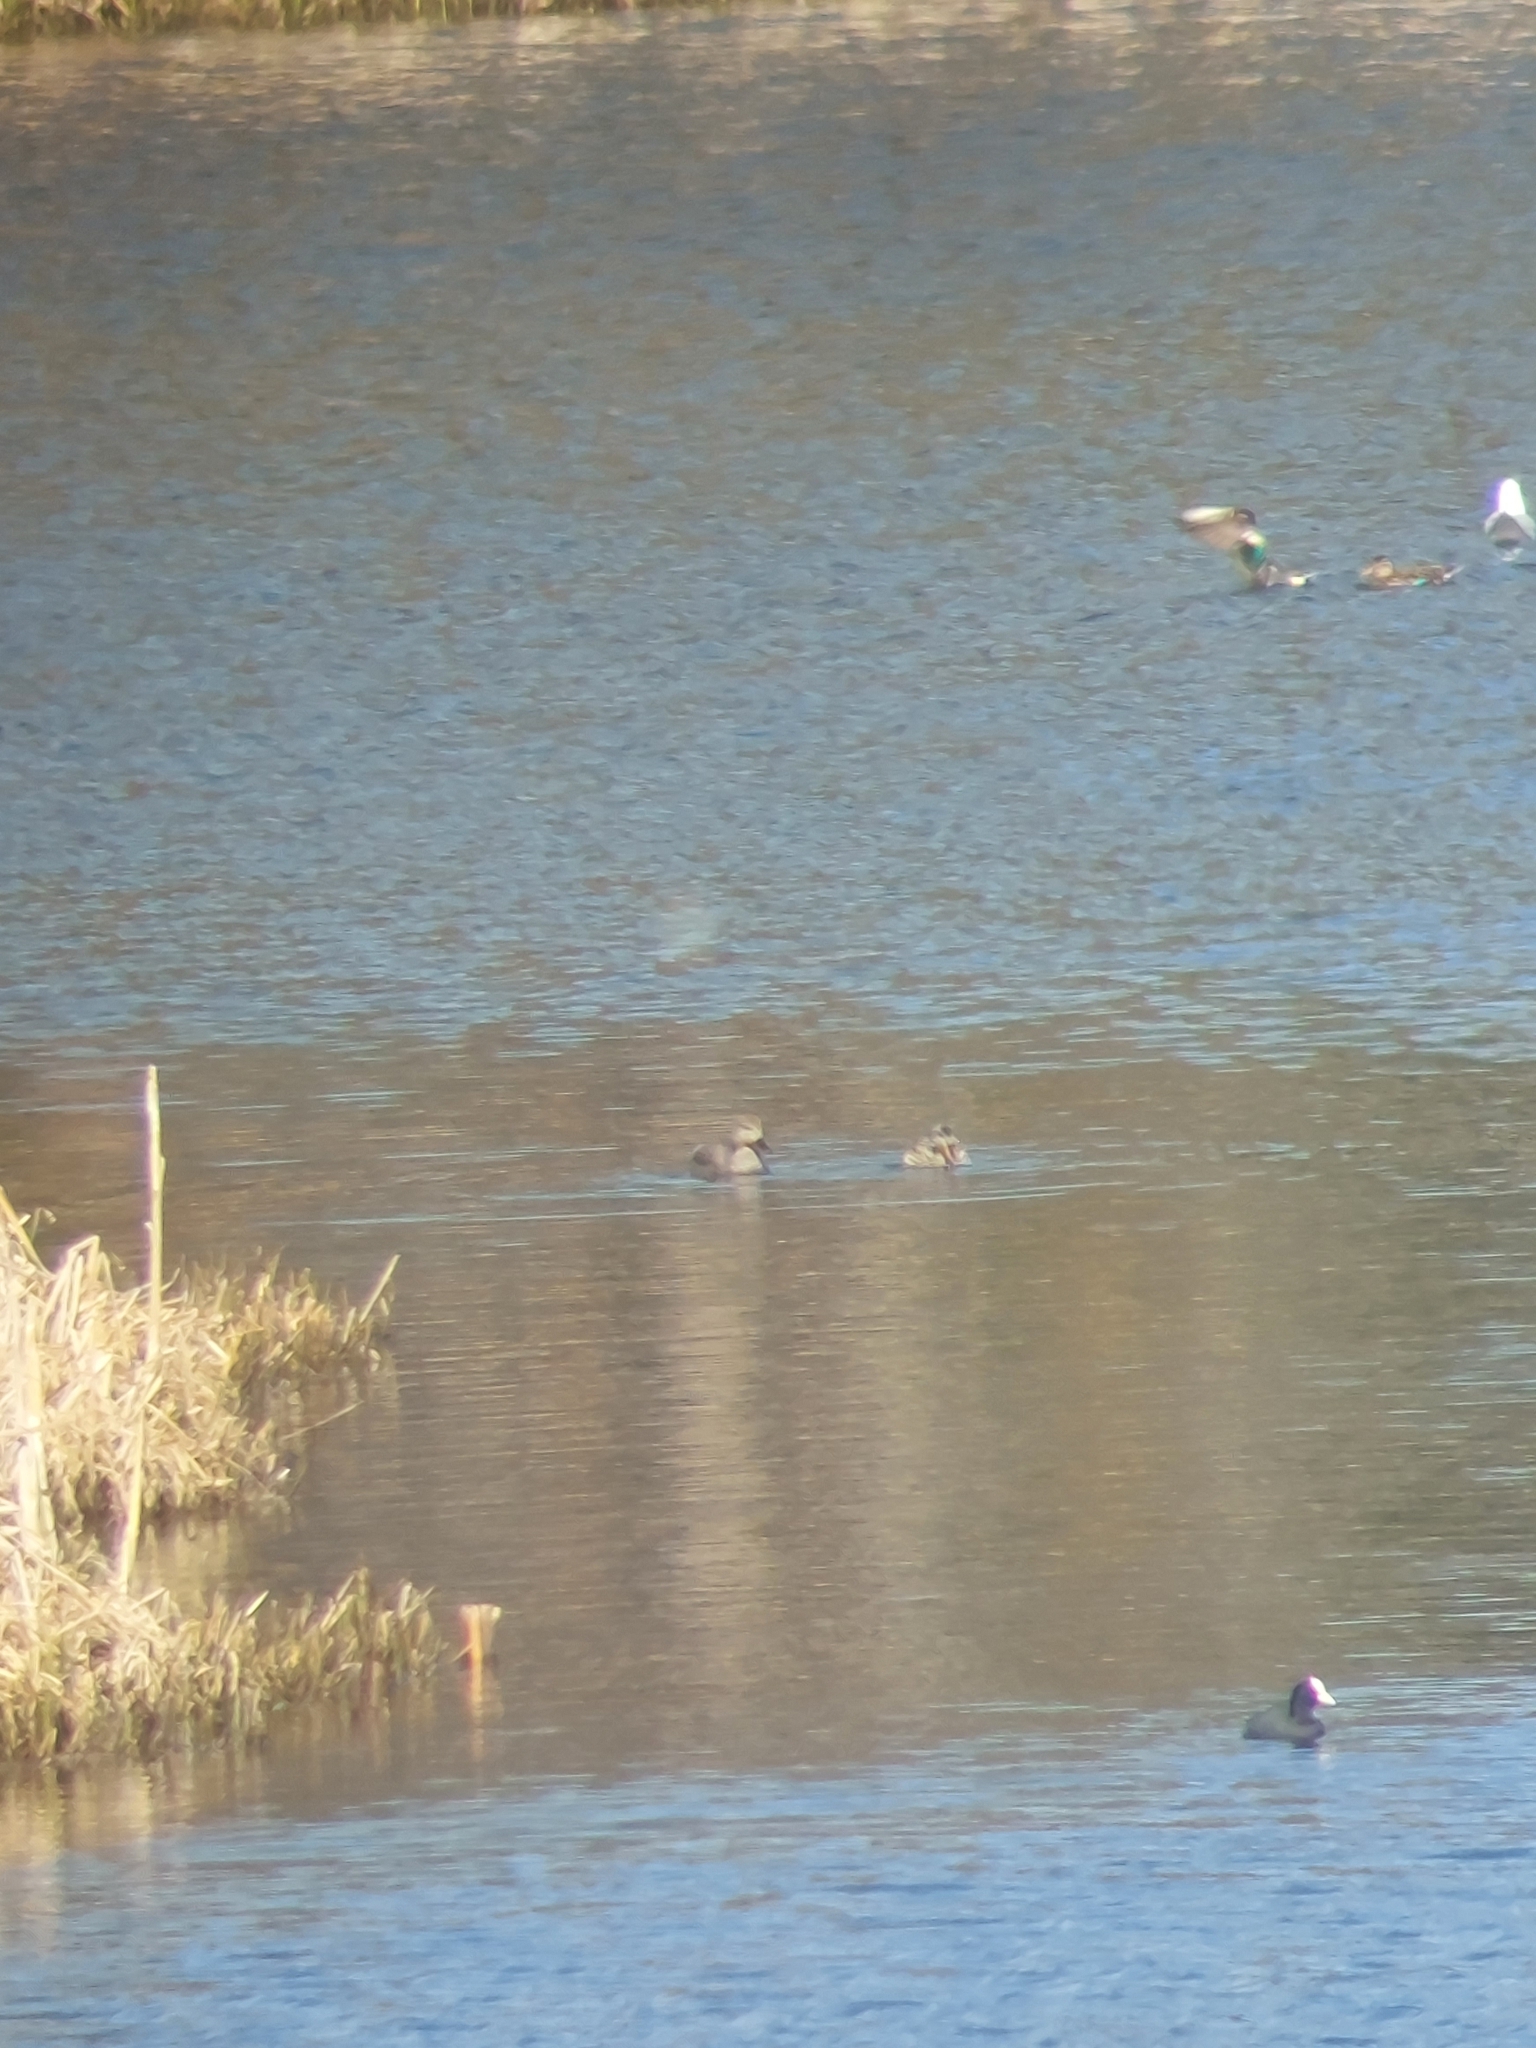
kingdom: Animalia
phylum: Chordata
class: Aves
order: Anseriformes
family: Anatidae
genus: Mareca
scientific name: Mareca strepera
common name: Gadwall
